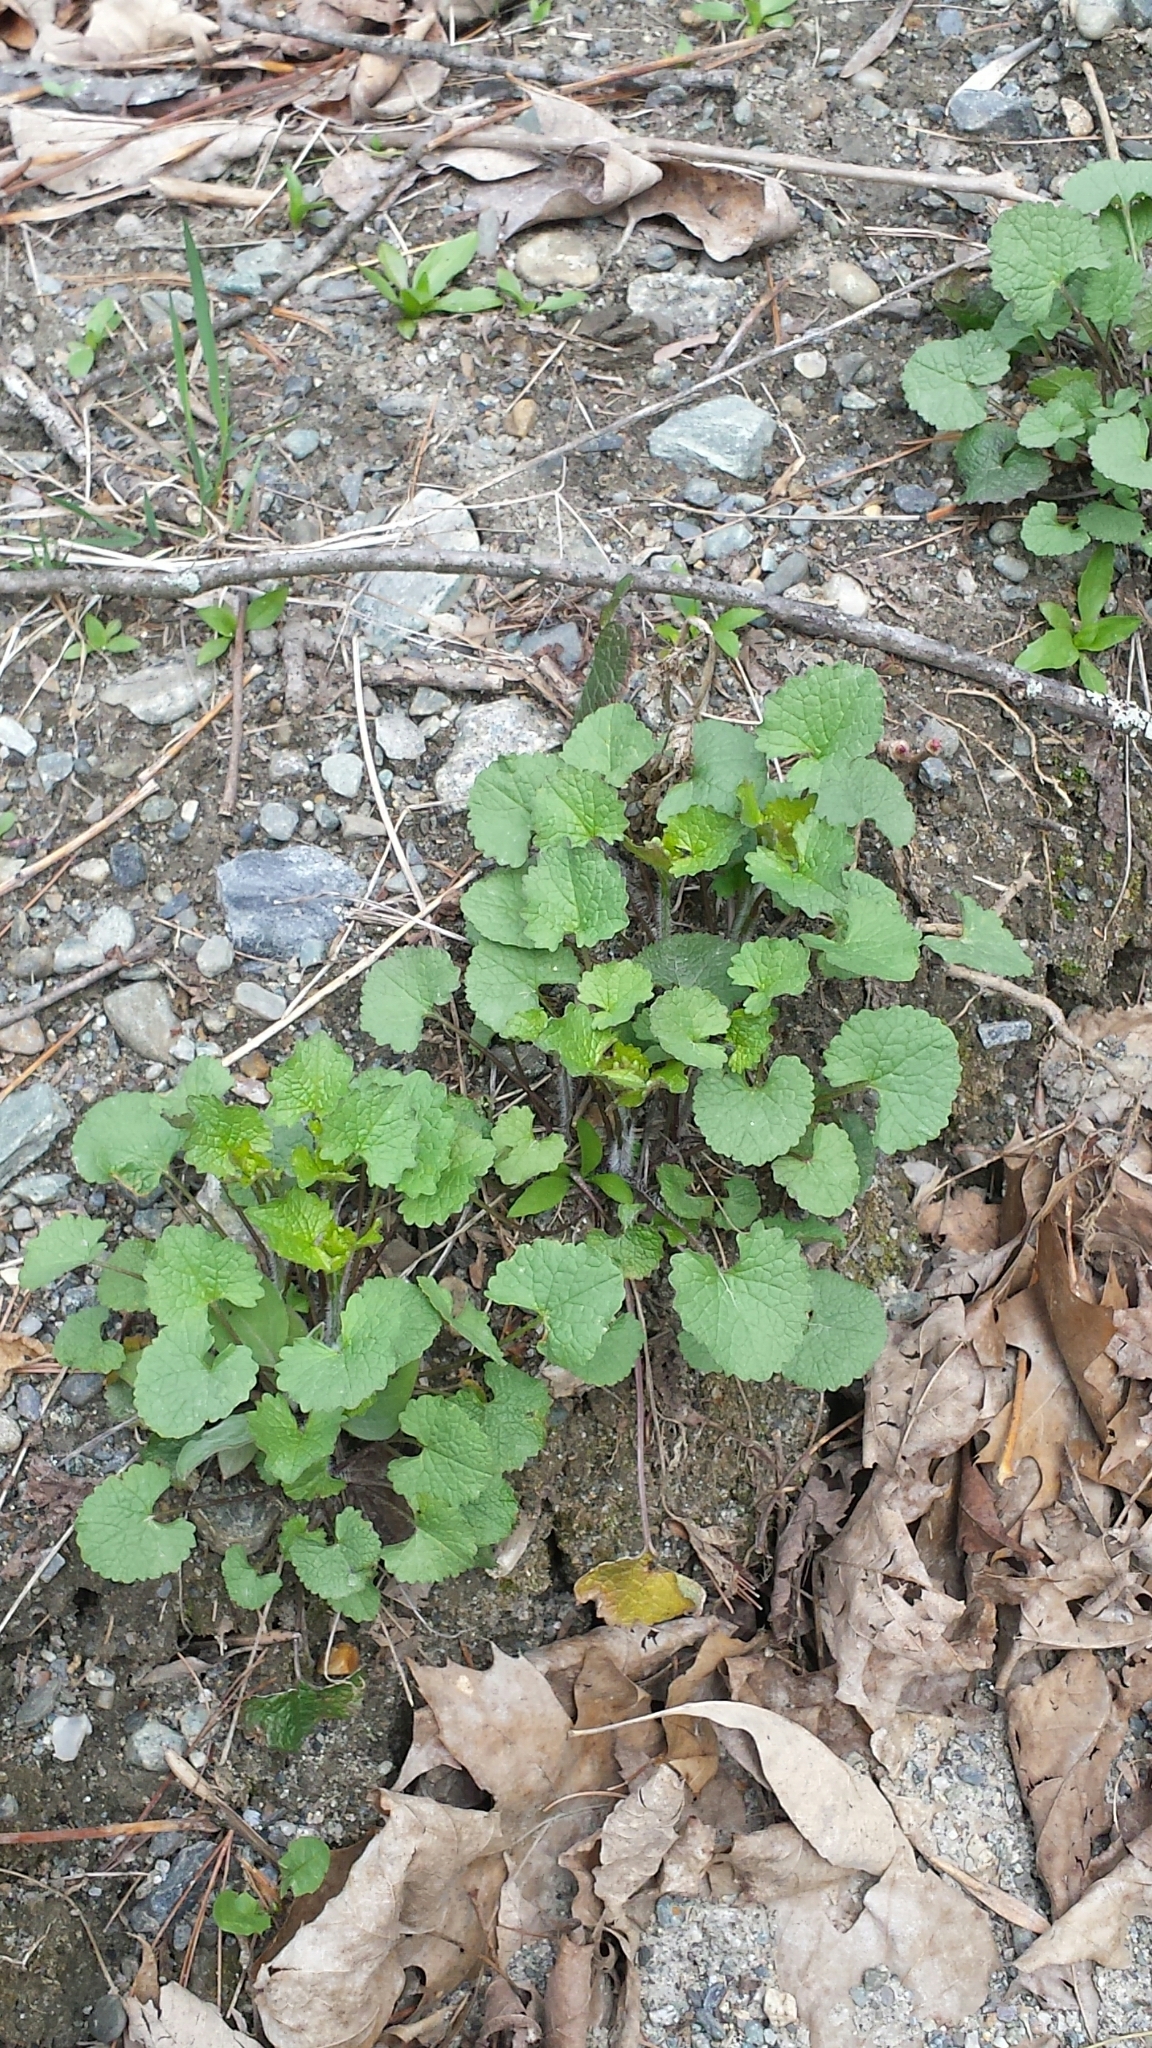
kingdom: Plantae
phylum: Tracheophyta
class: Magnoliopsida
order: Brassicales
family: Brassicaceae
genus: Alliaria
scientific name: Alliaria petiolata
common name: Garlic mustard
